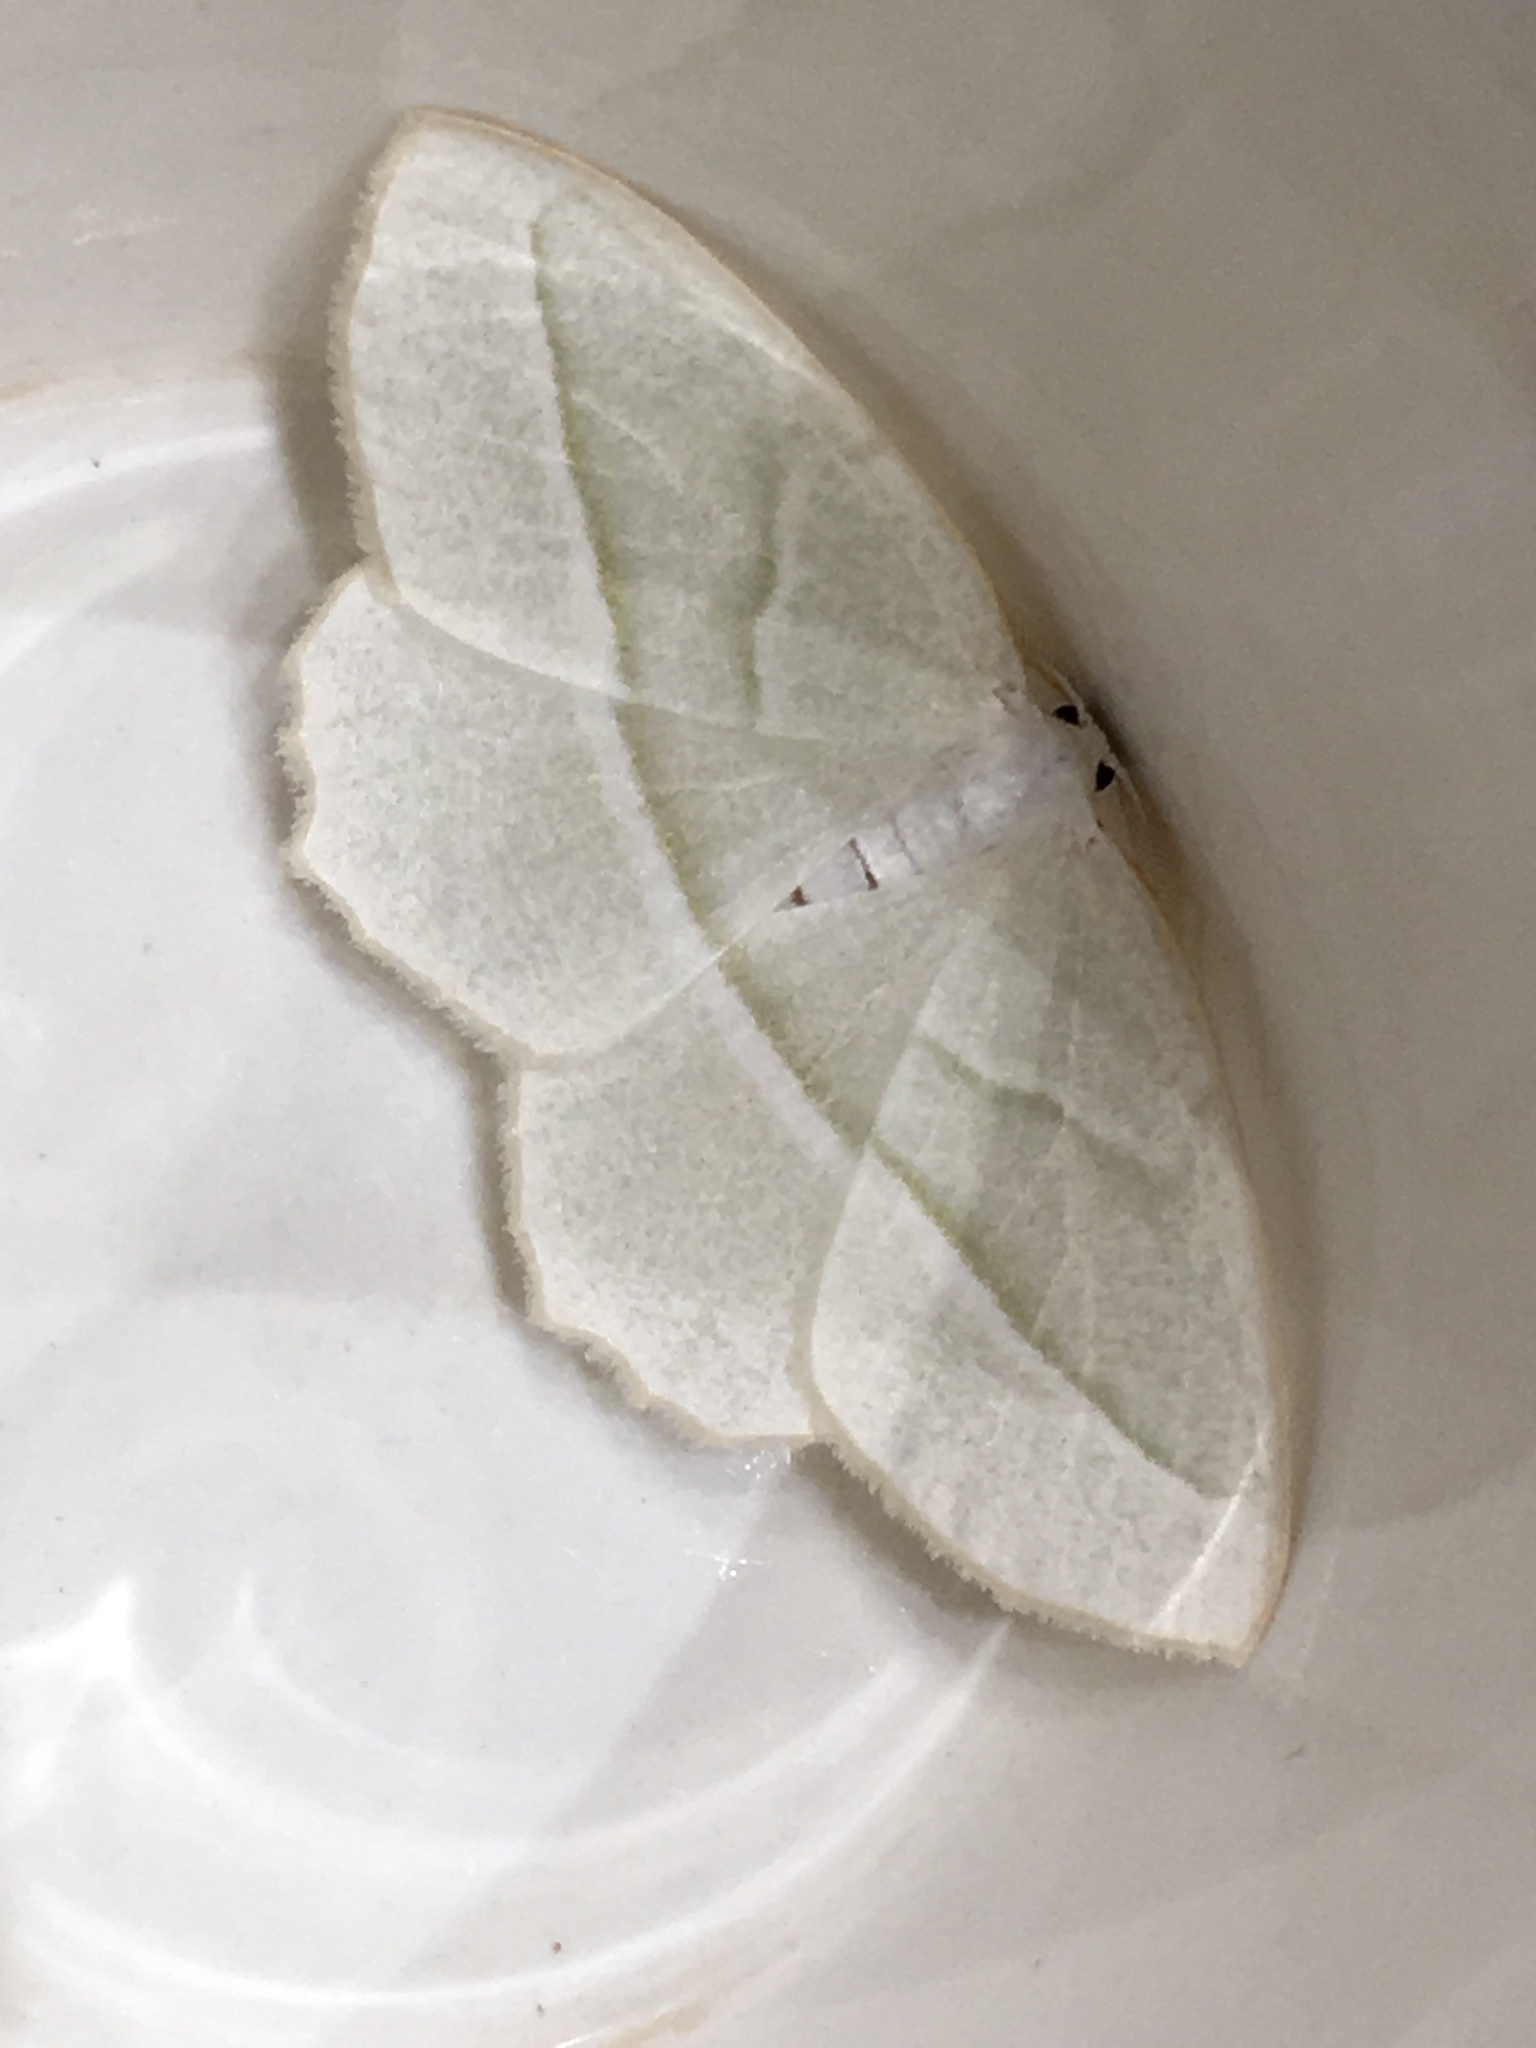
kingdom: Animalia
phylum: Arthropoda
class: Insecta
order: Lepidoptera
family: Geometridae
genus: Campaea
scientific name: Campaea perlata
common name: Fringed looper
